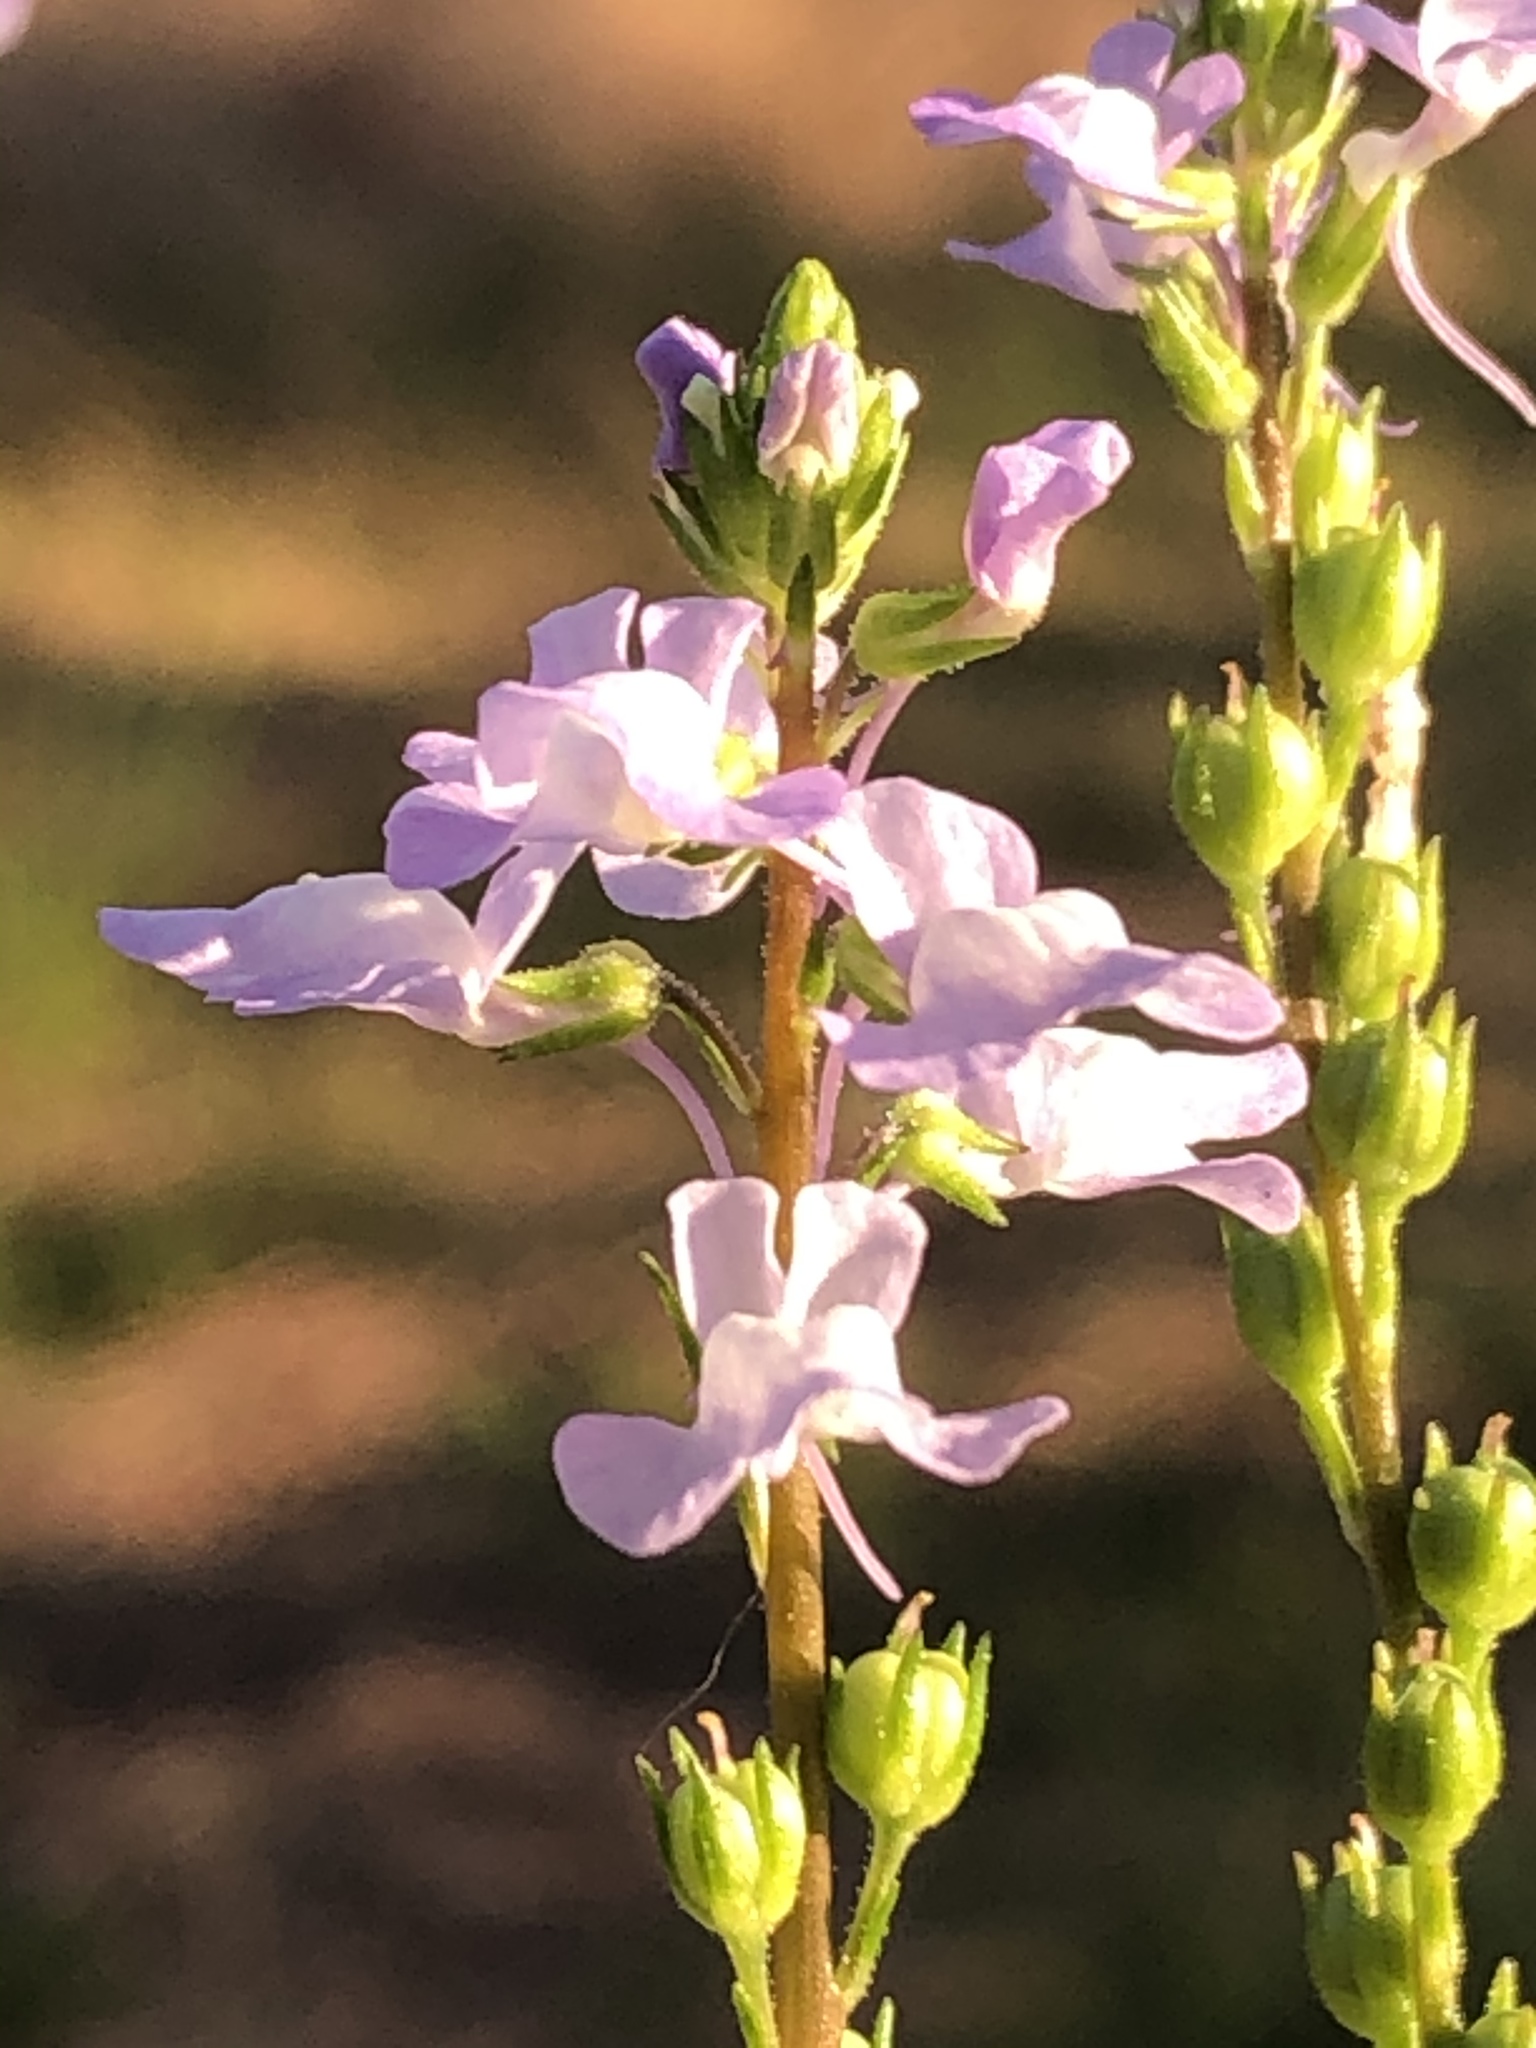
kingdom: Plantae
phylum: Tracheophyta
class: Magnoliopsida
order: Lamiales
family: Plantaginaceae
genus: Nuttallanthus
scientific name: Nuttallanthus canadensis
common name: Blue toadflax
